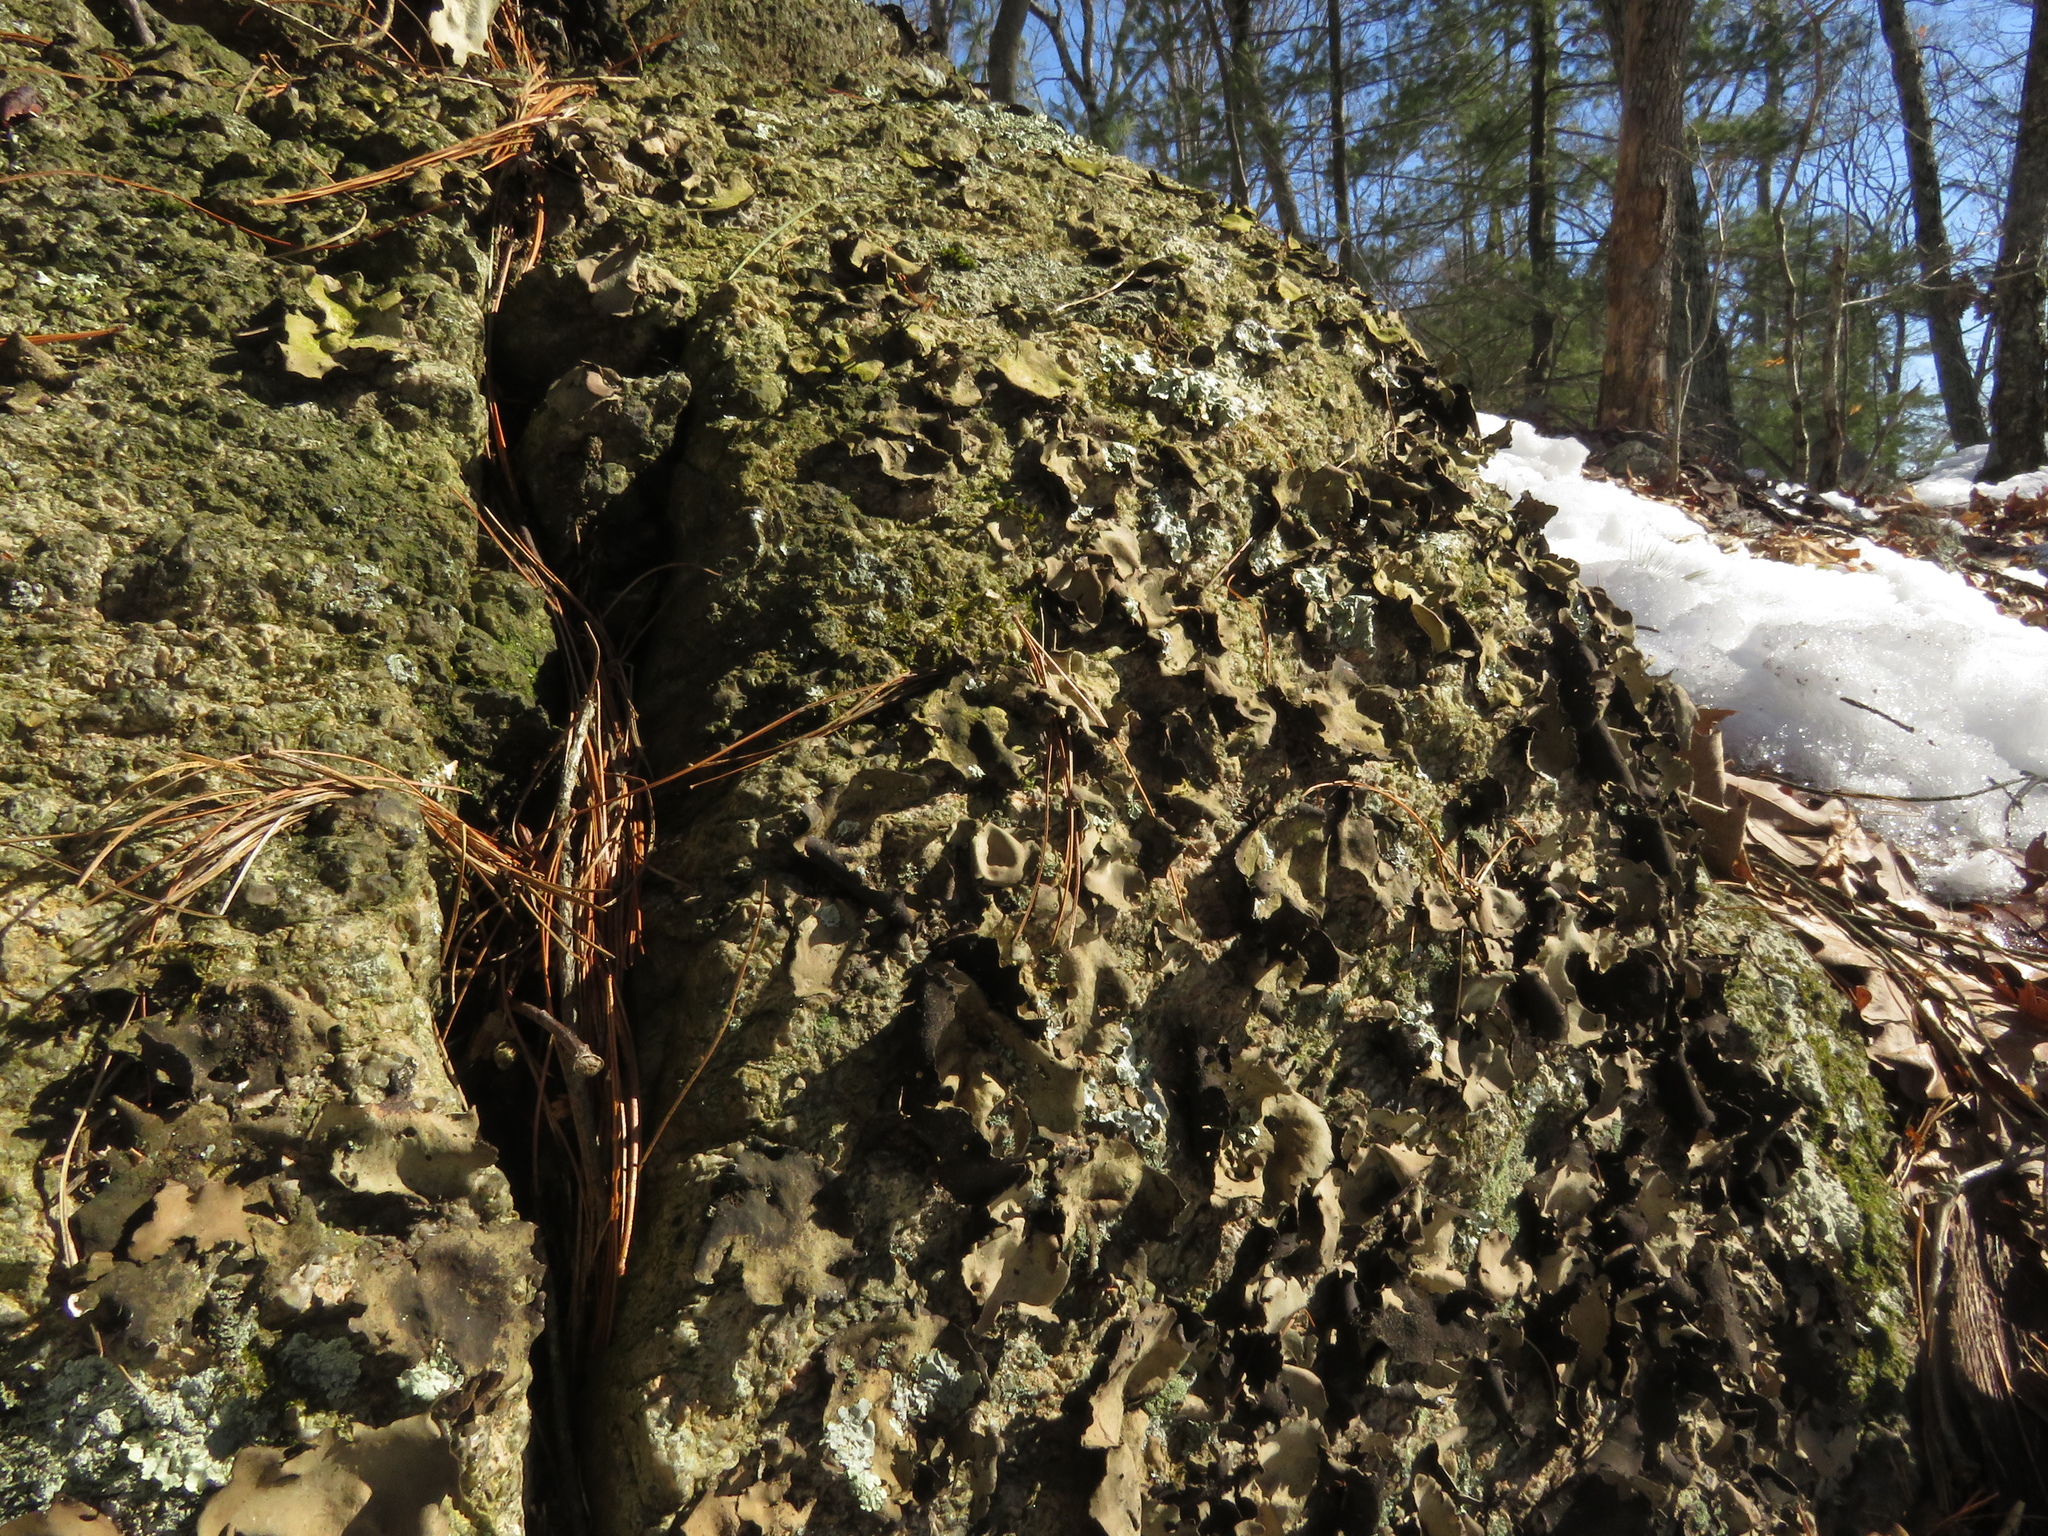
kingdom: Fungi
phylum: Ascomycota
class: Lecanoromycetes
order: Umbilicariales
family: Umbilicariaceae
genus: Umbilicaria
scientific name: Umbilicaria mammulata
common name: Smooth rock tripe
